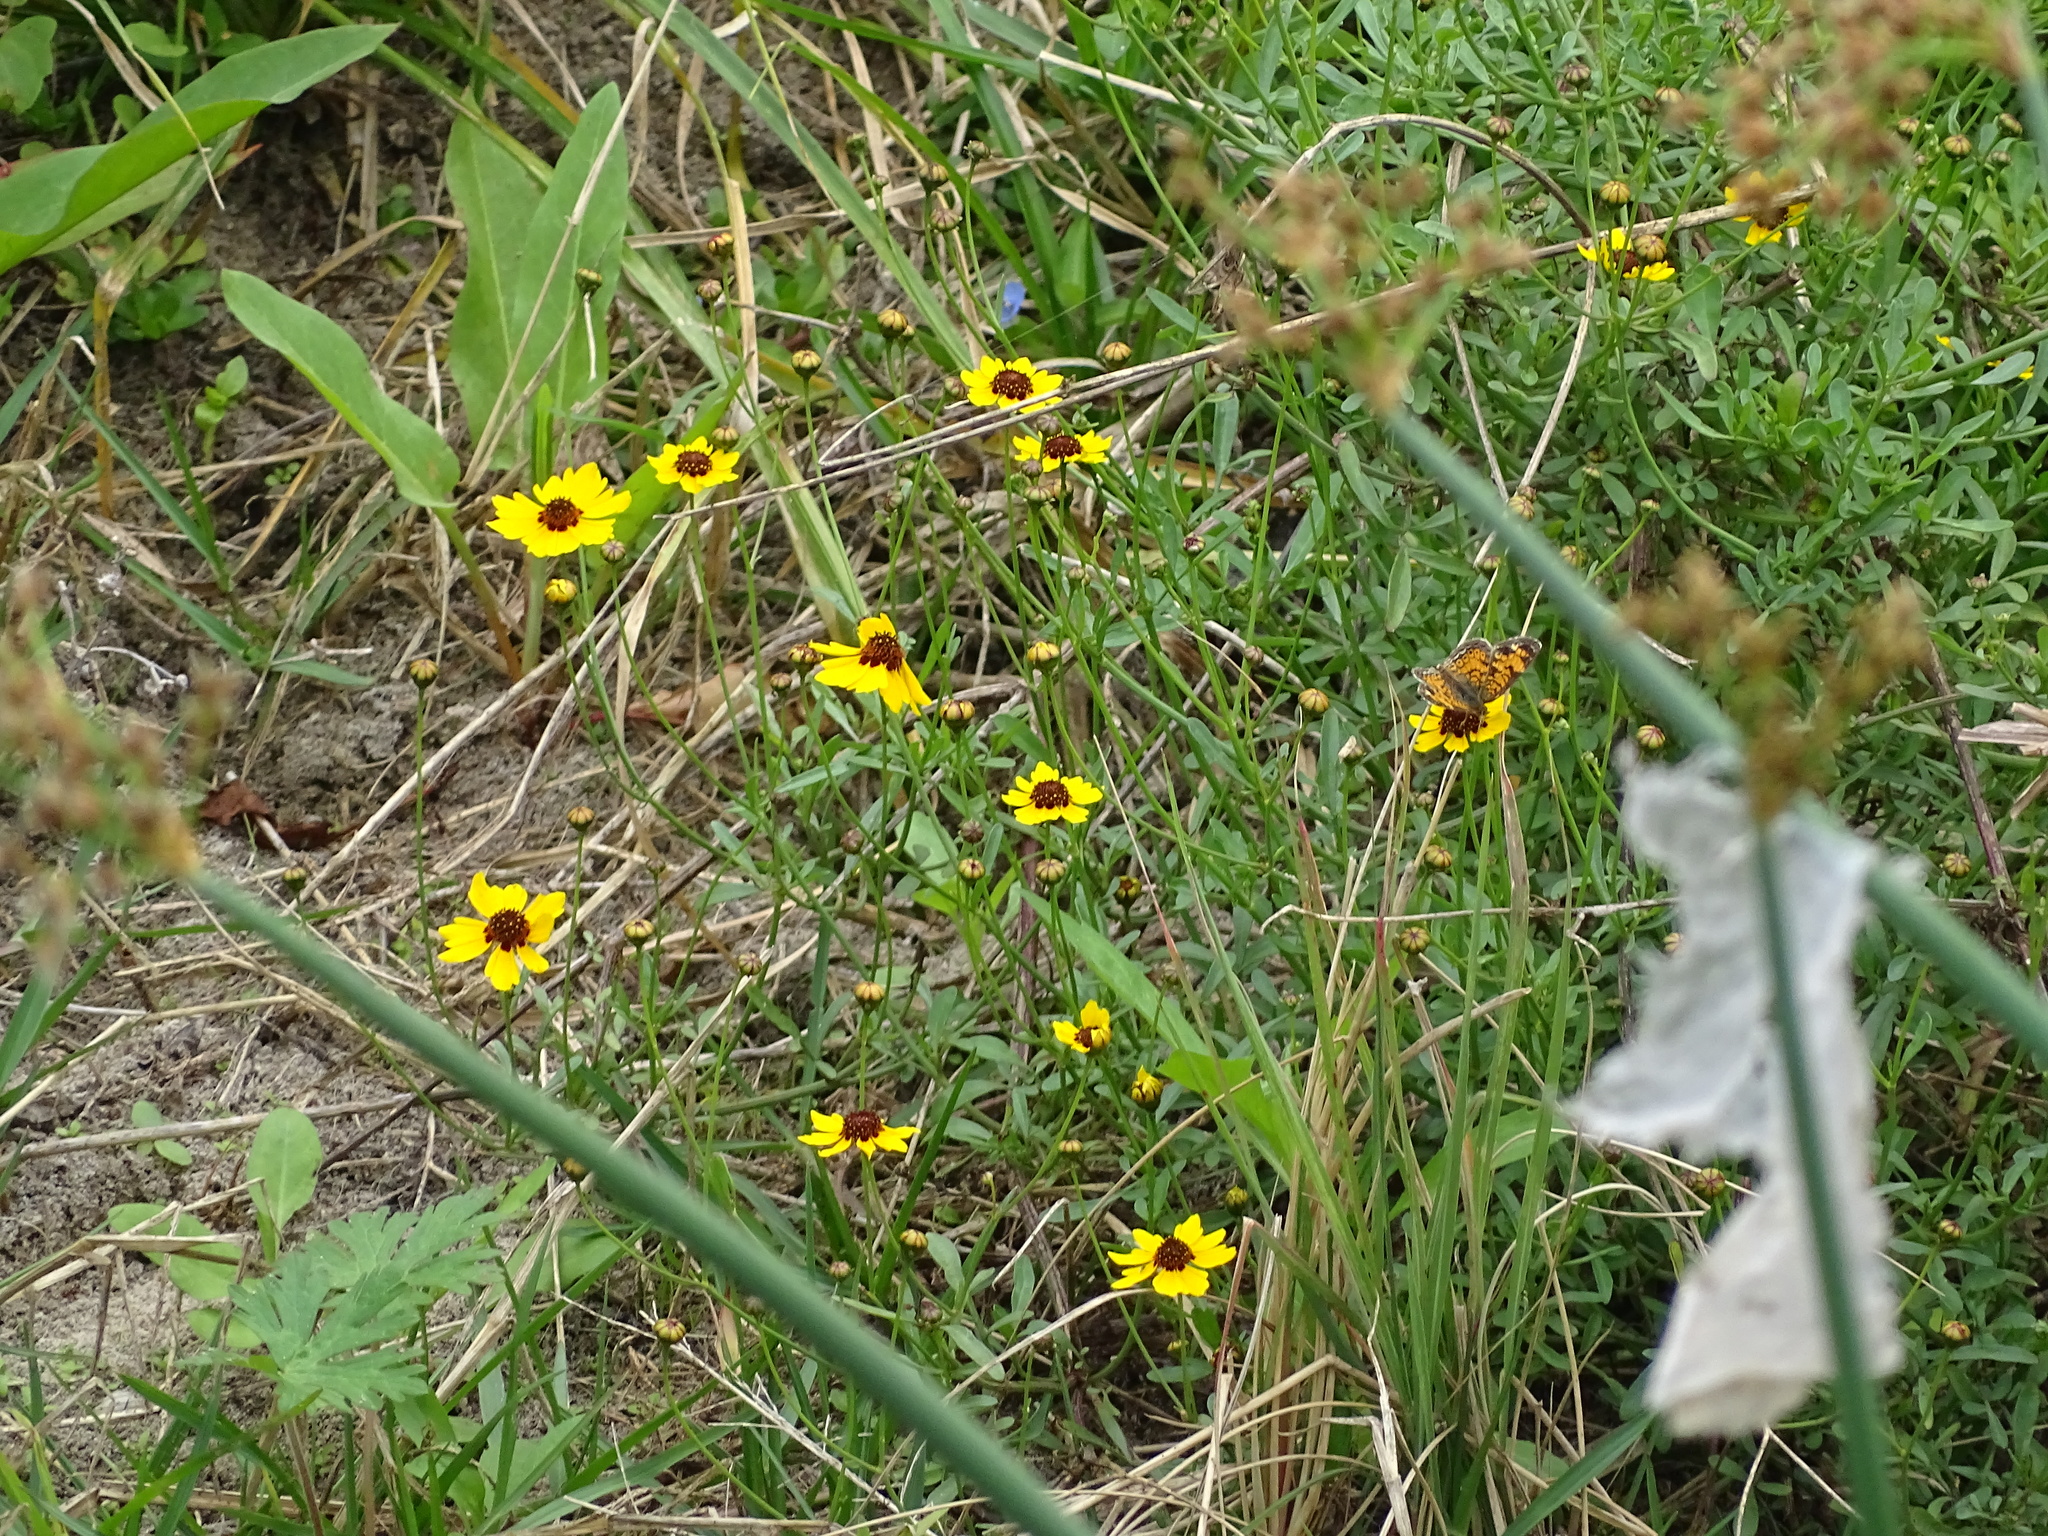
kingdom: Plantae
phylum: Tracheophyta
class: Magnoliopsida
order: Asterales
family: Asteraceae
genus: Coreopsis
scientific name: Coreopsis basalis
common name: Golden-mane coreopsis
